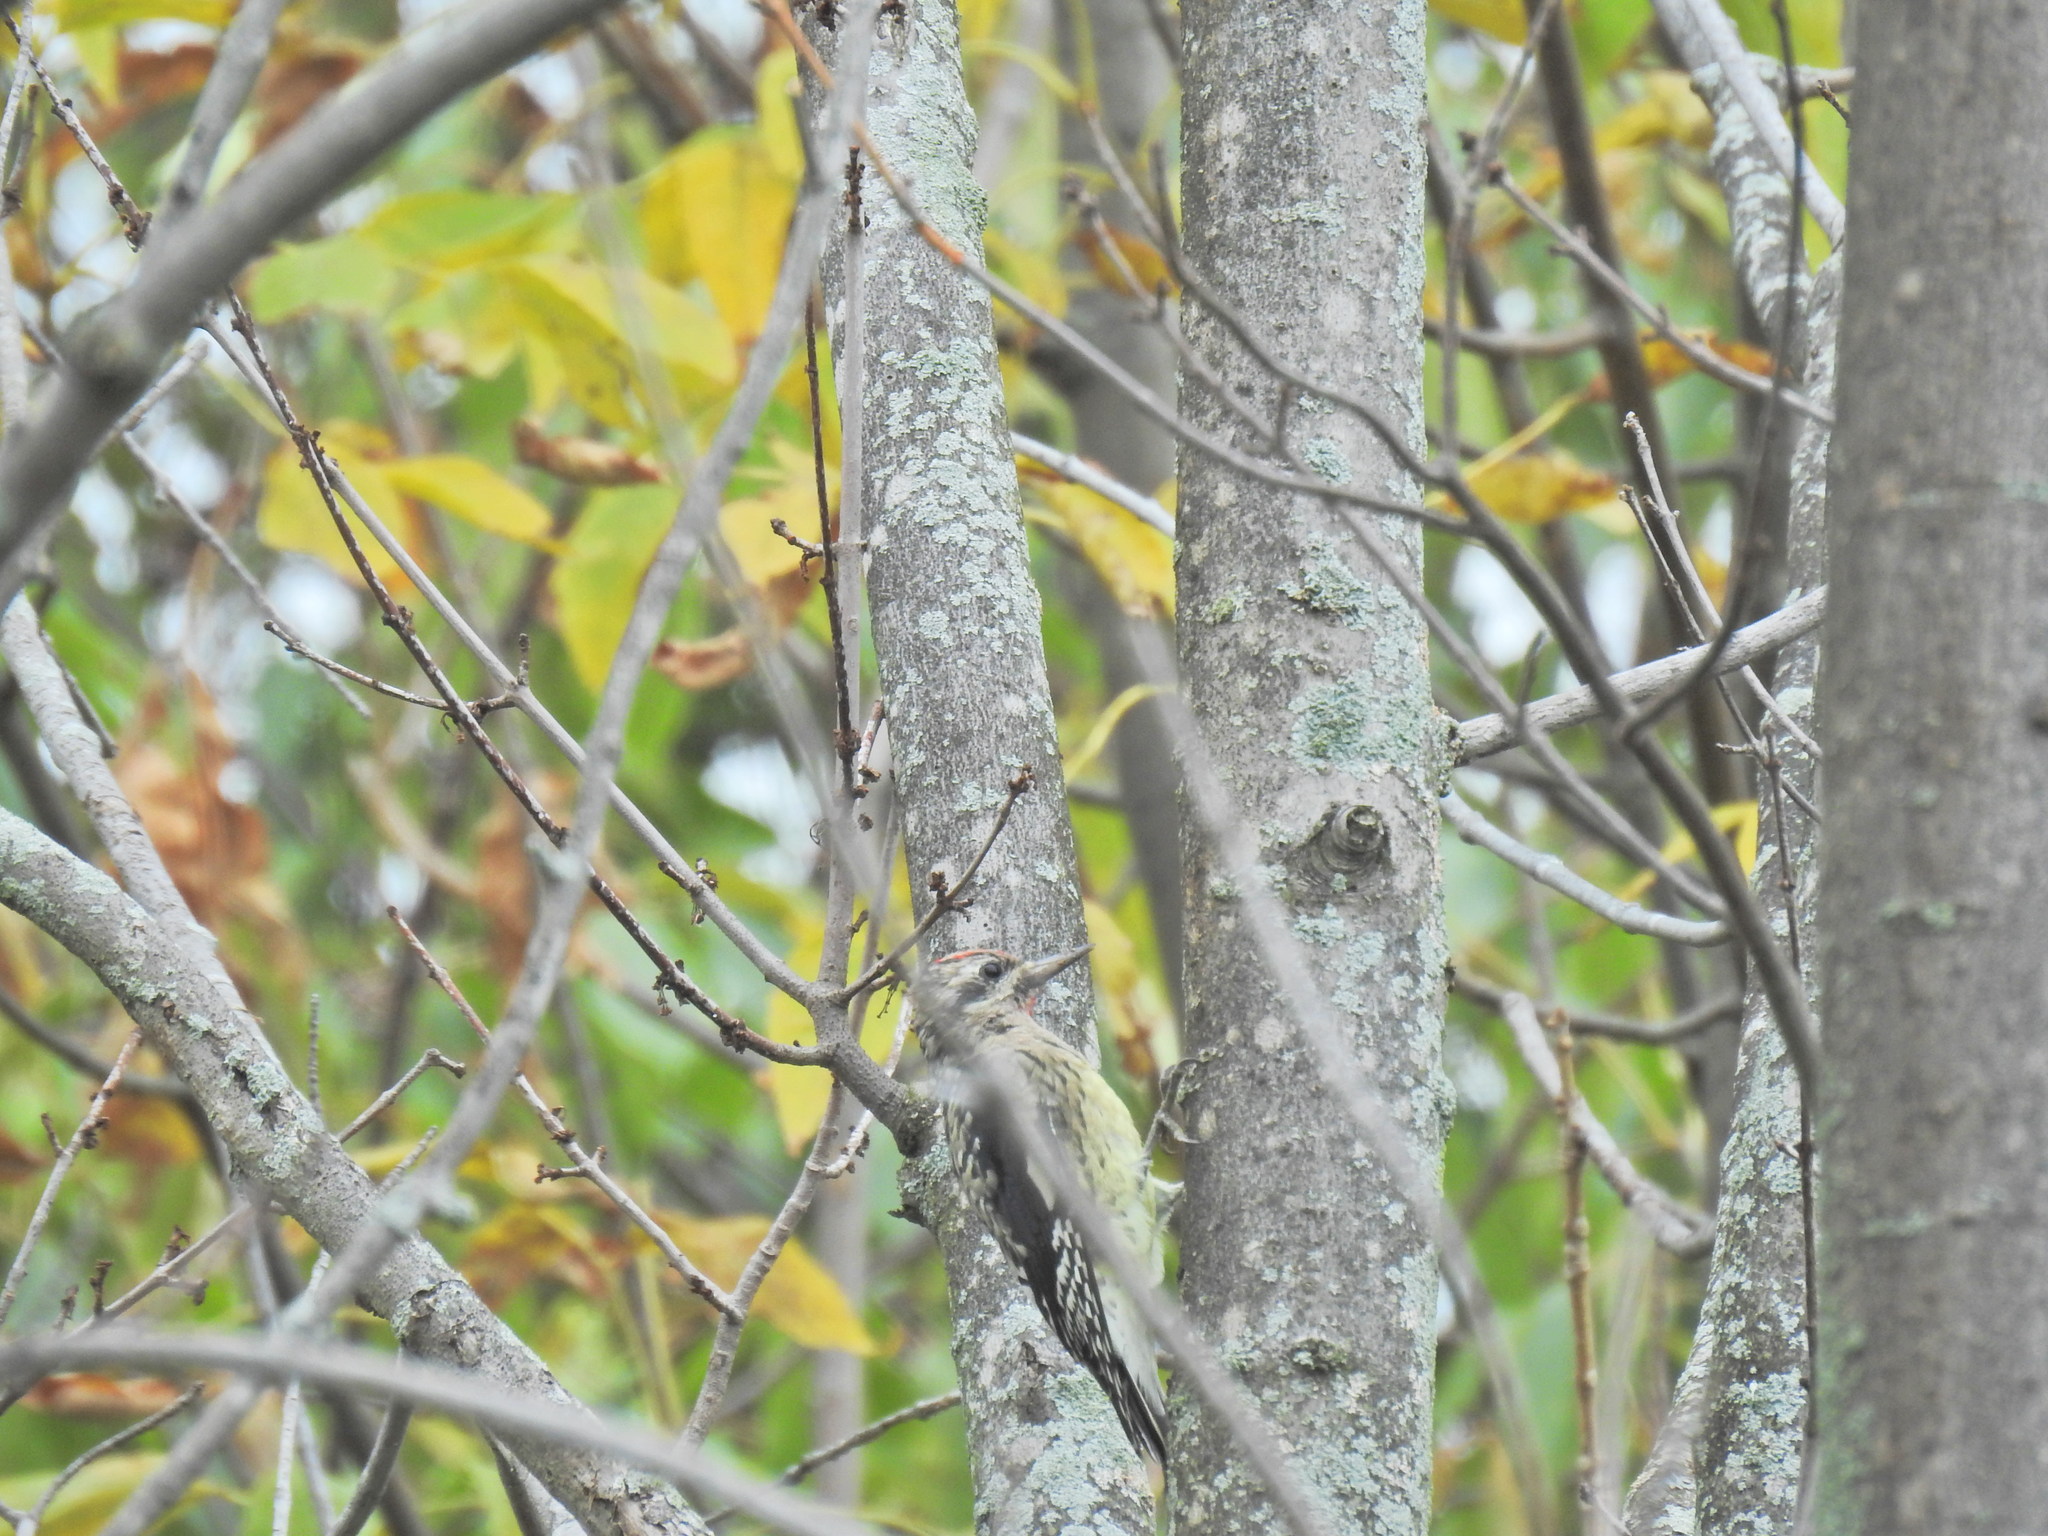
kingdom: Animalia
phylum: Chordata
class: Aves
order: Piciformes
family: Picidae
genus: Sphyrapicus
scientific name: Sphyrapicus varius
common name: Yellow-bellied sapsucker
